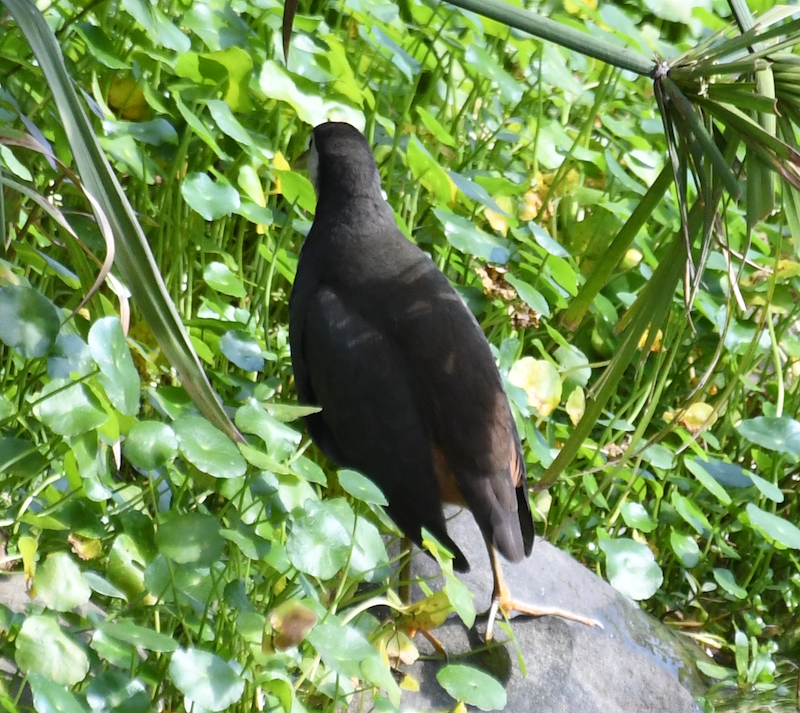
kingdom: Animalia
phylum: Chordata
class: Aves
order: Gruiformes
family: Rallidae
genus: Amaurornis
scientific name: Amaurornis phoenicurus
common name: White-breasted waterhen
